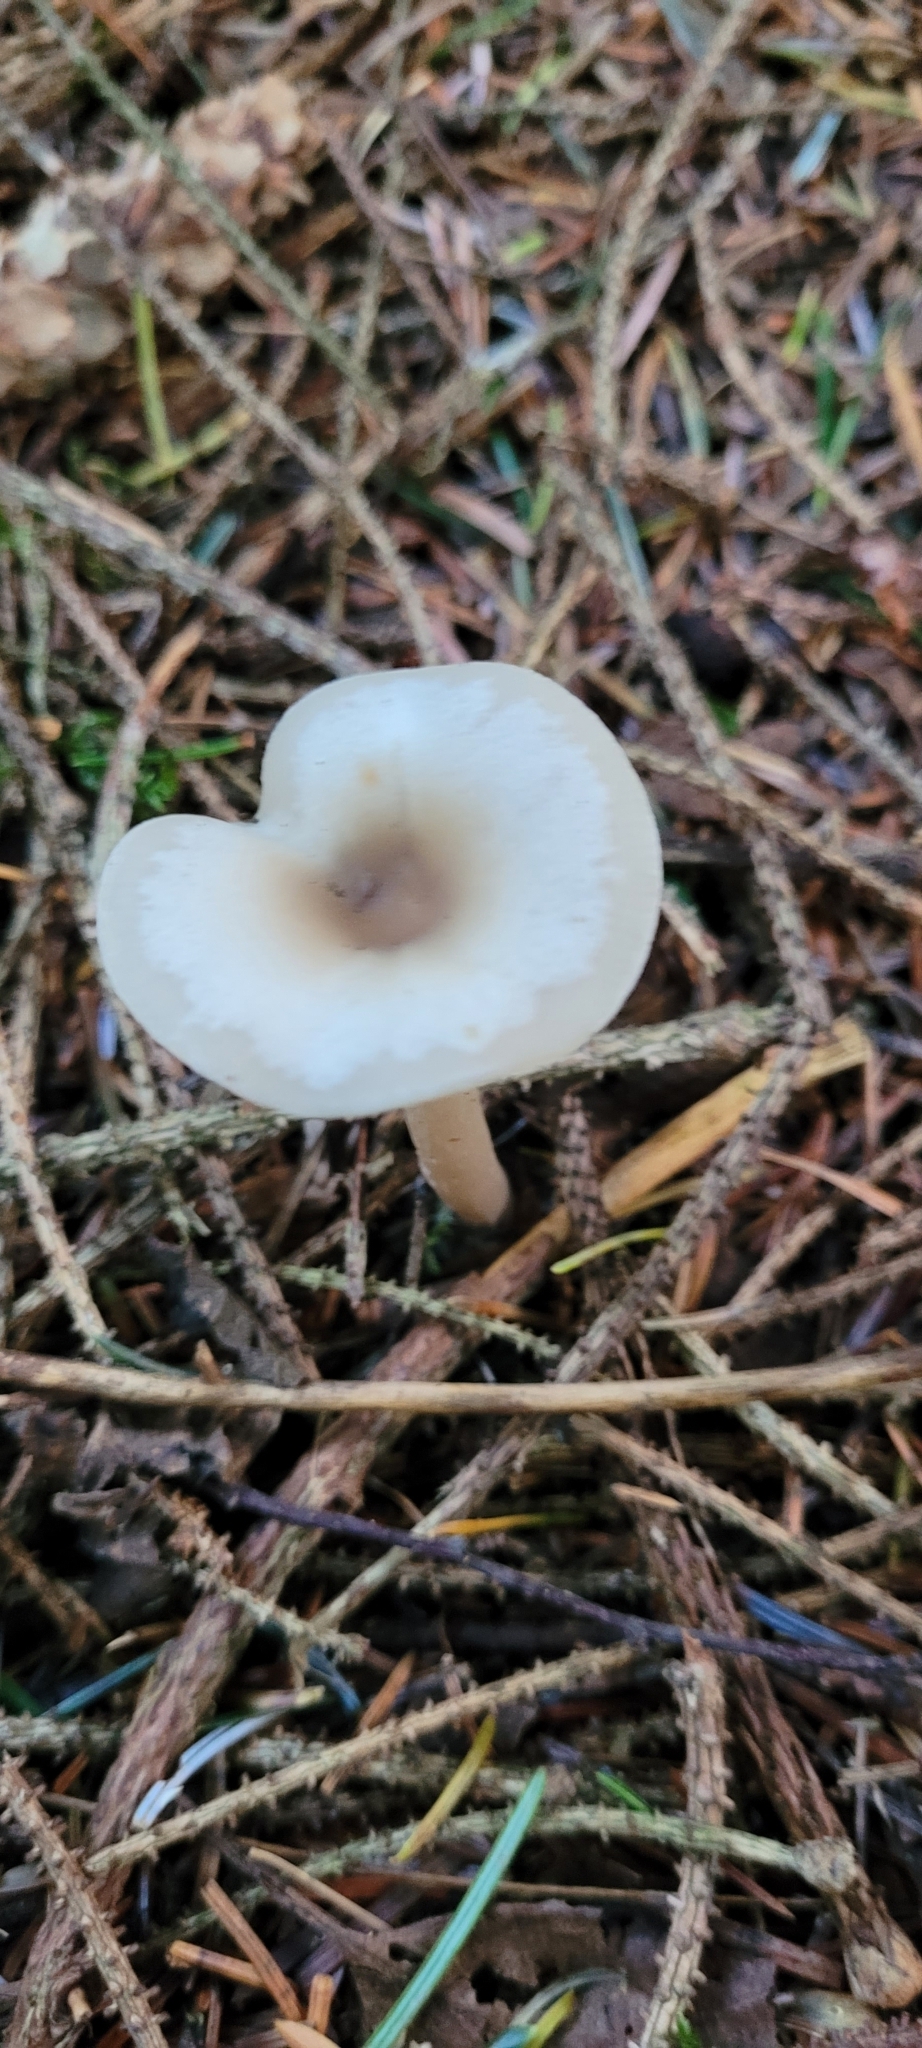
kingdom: Fungi
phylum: Basidiomycota
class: Agaricomycetes
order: Agaricales
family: Omphalotaceae
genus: Rhodocollybia
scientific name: Rhodocollybia asema
